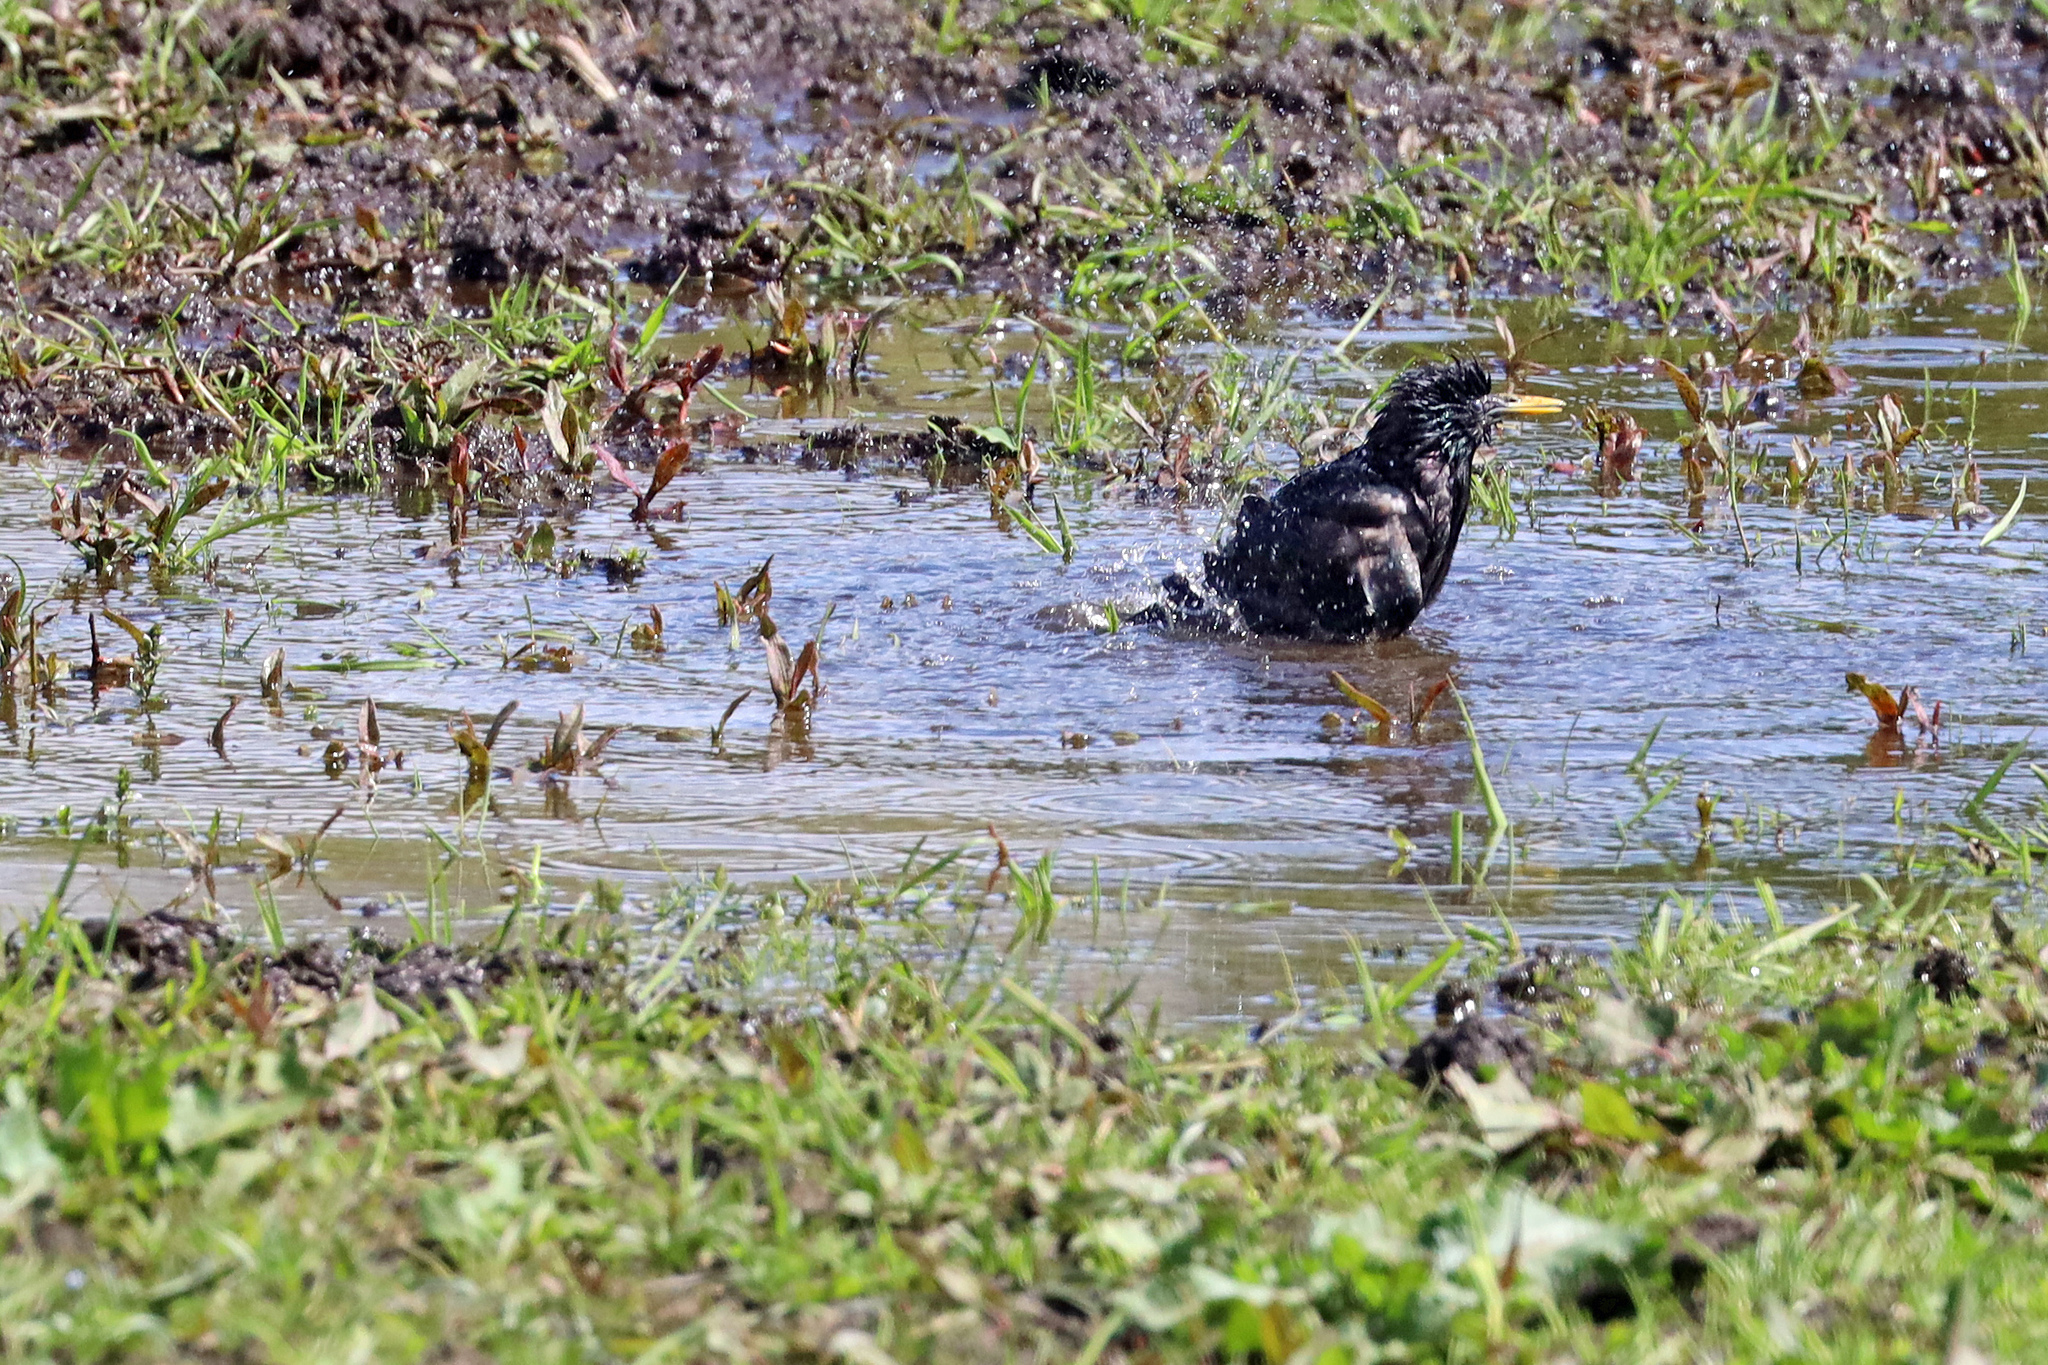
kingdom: Animalia
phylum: Chordata
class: Aves
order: Passeriformes
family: Sturnidae
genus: Sturnus
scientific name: Sturnus vulgaris
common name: Common starling
